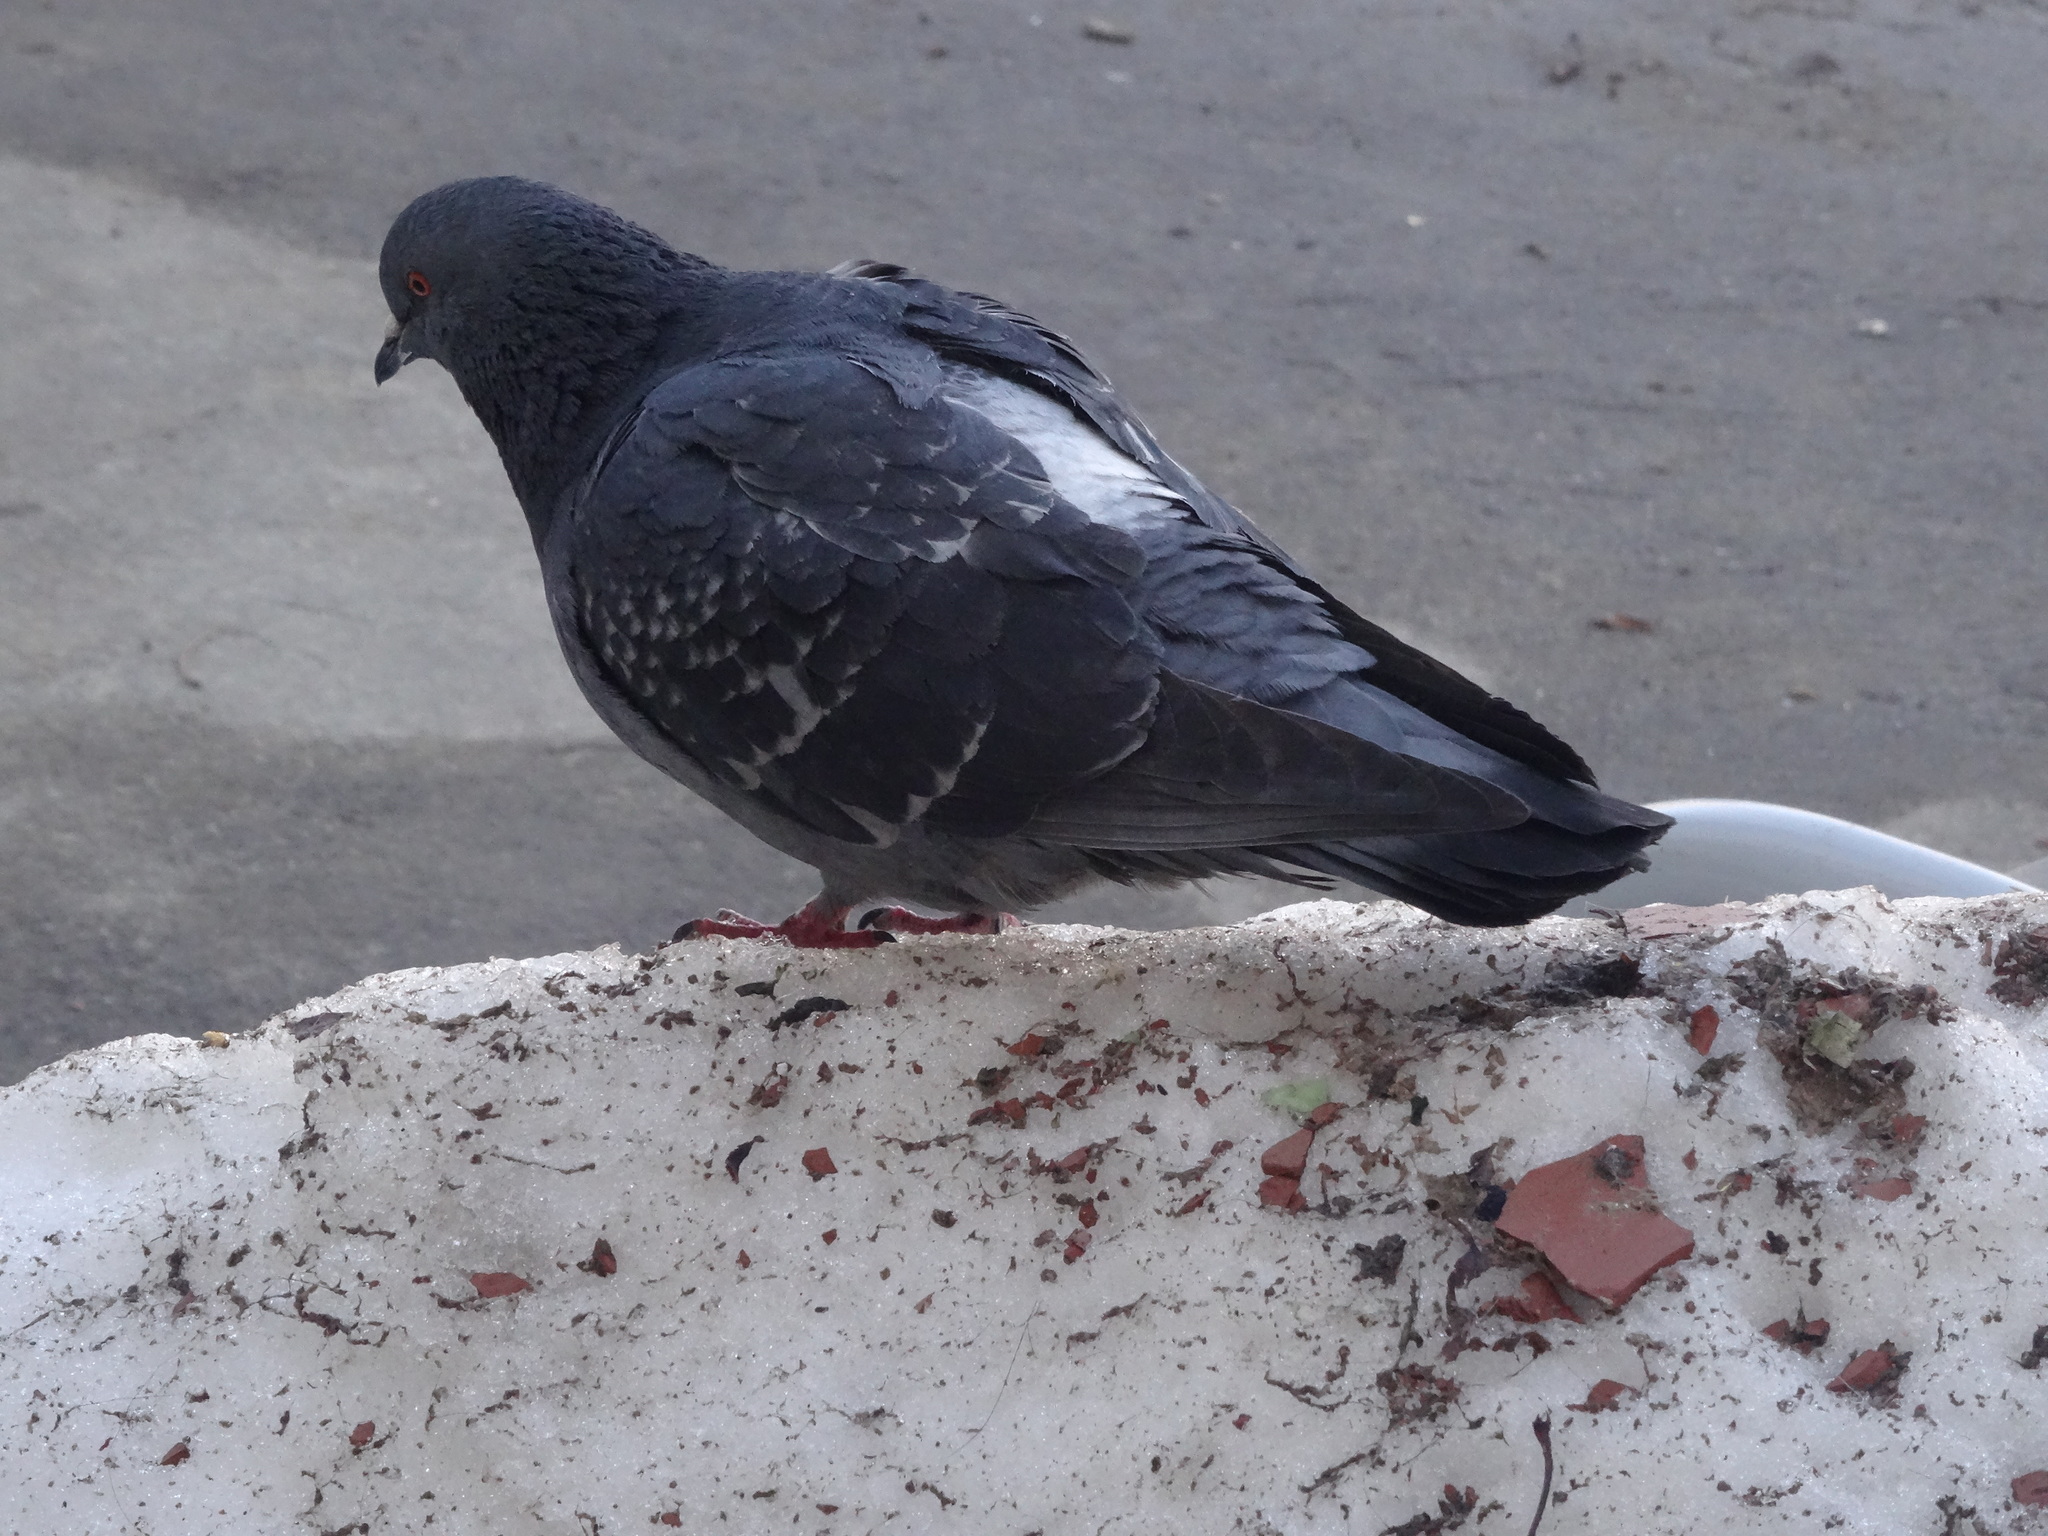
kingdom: Animalia
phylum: Chordata
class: Aves
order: Columbiformes
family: Columbidae
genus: Columba
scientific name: Columba livia
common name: Rock pigeon
